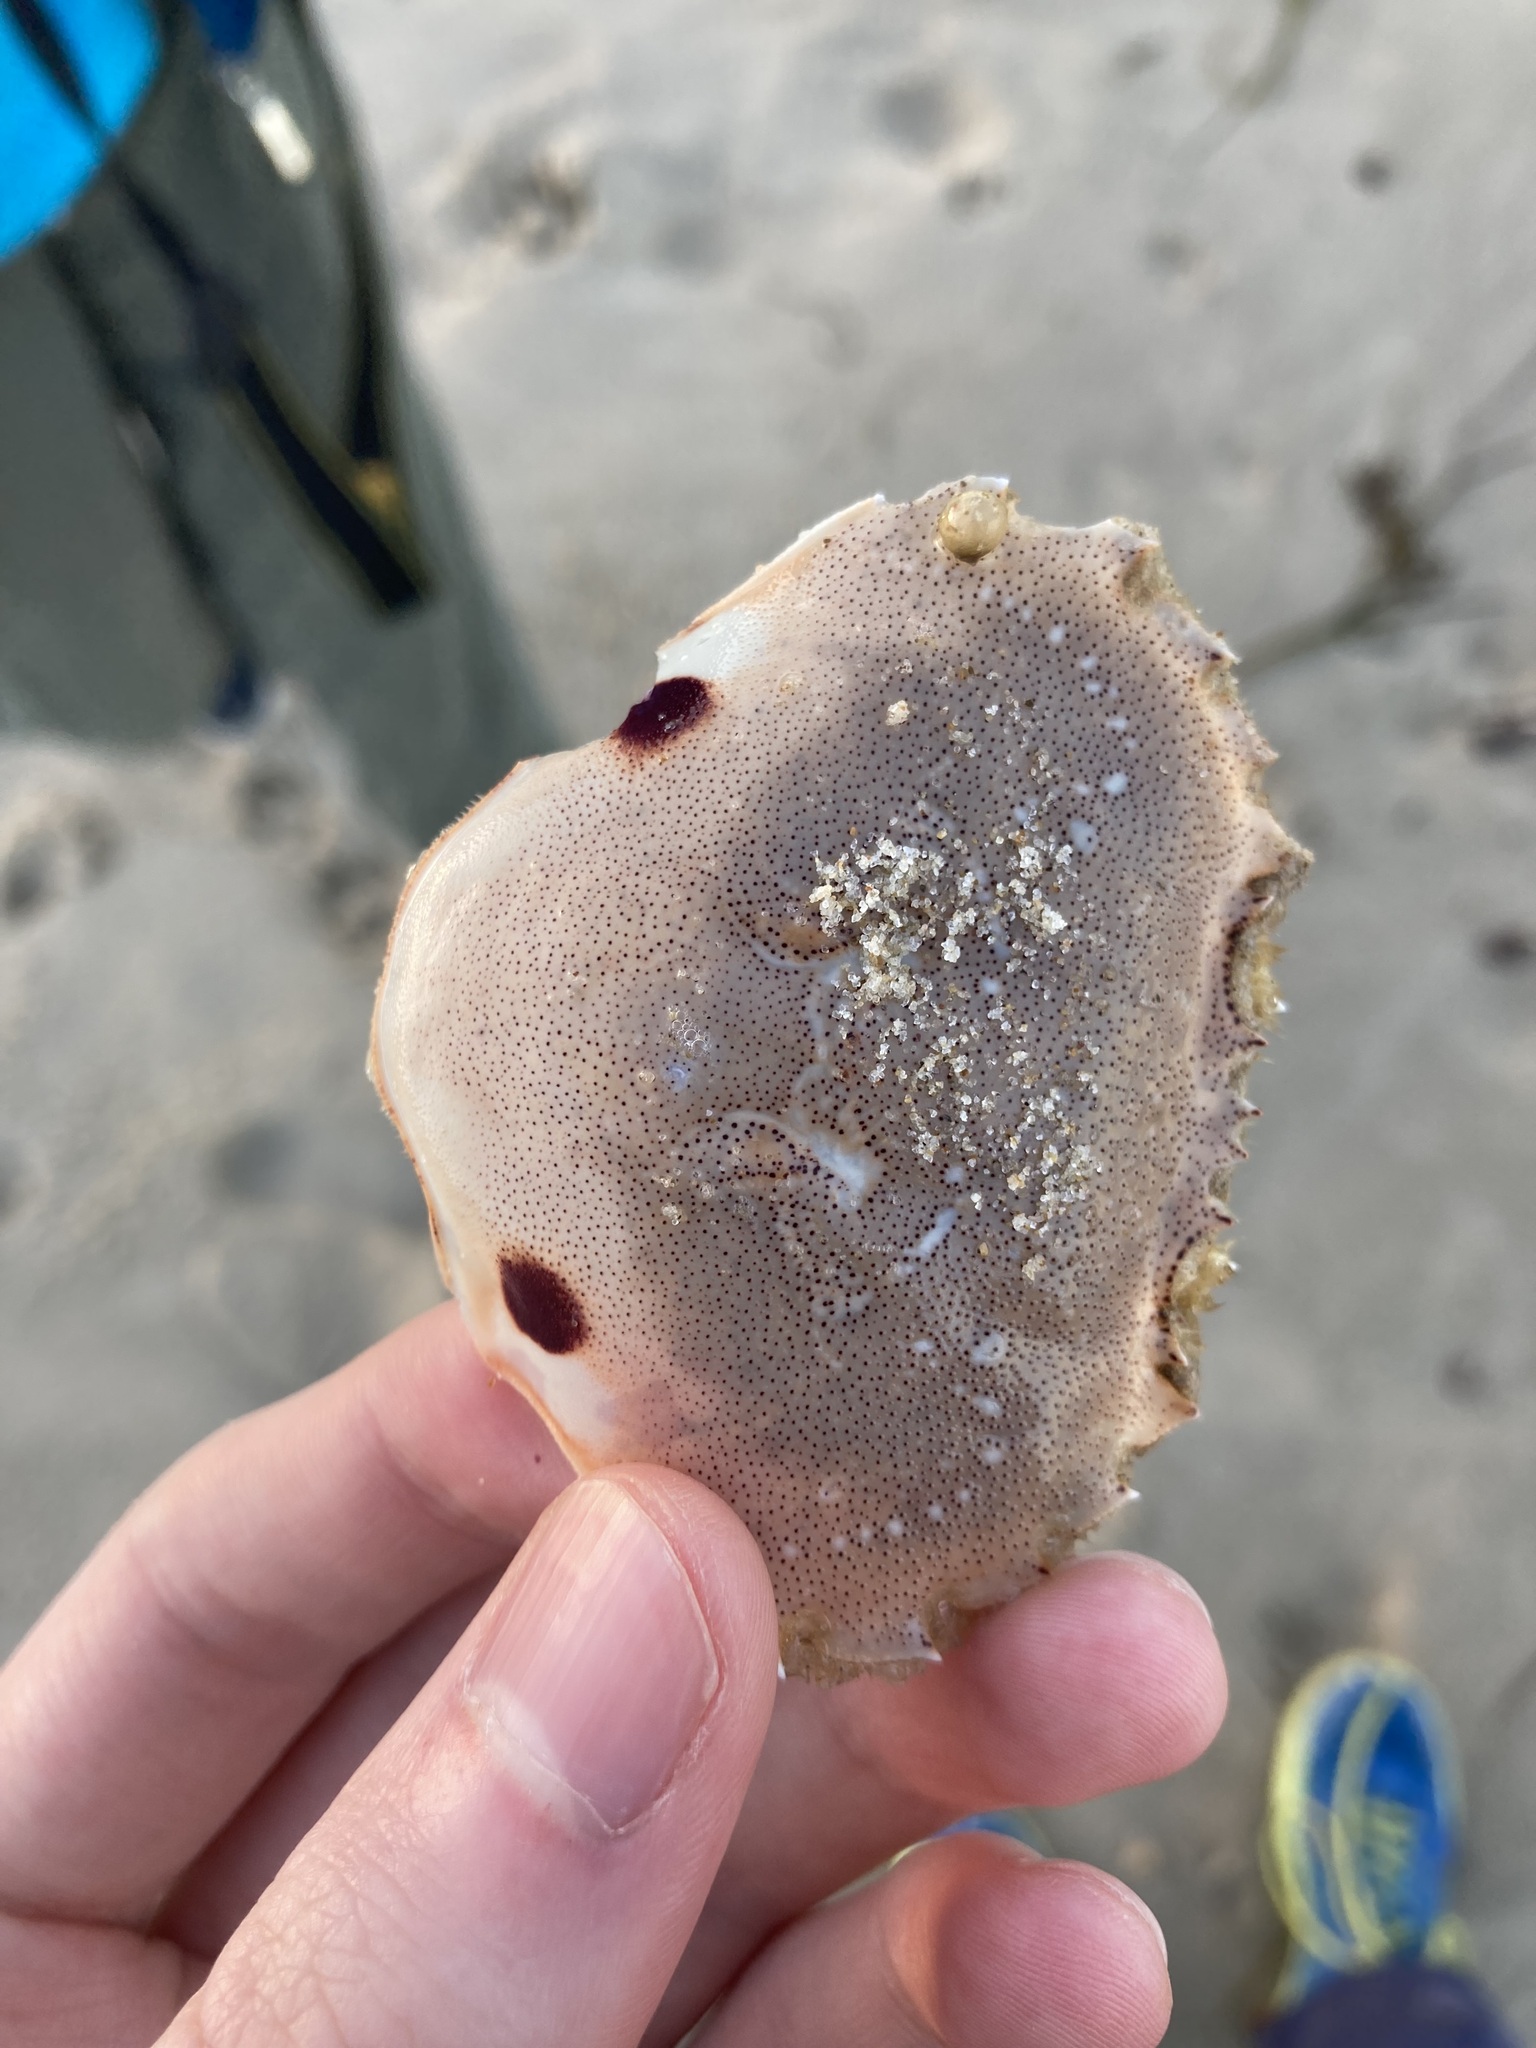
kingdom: Animalia
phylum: Arthropoda
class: Malacostraca
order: Decapoda
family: Ovalipidae
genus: Ovalipes
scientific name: Ovalipes australiensis
